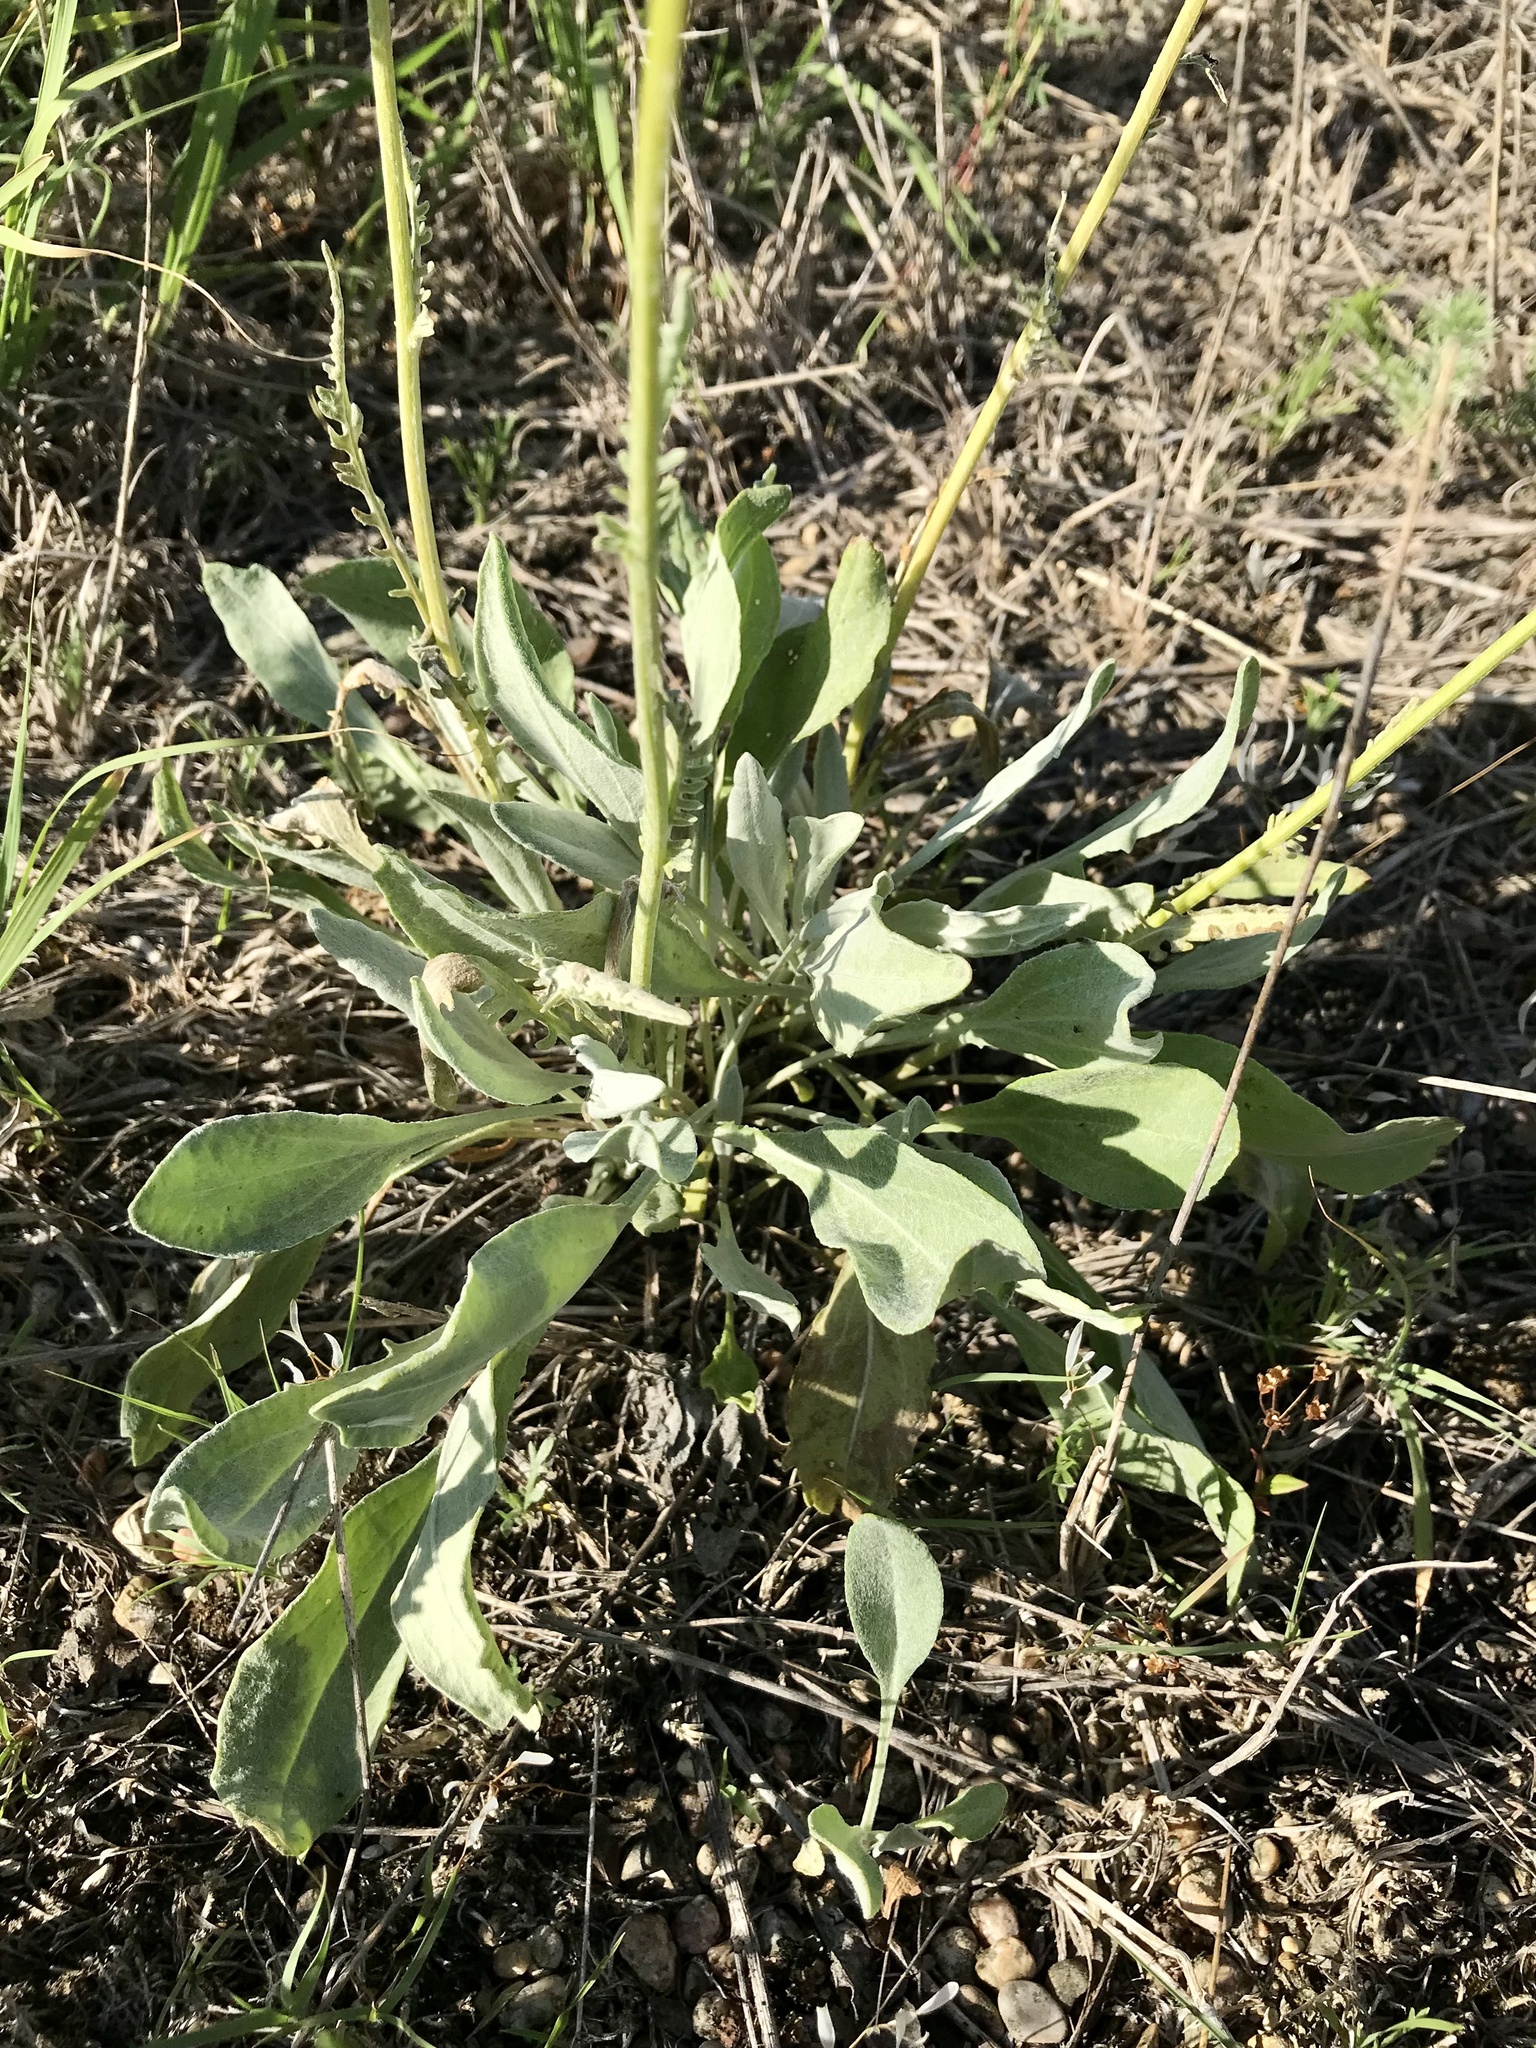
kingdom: Plantae
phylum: Tracheophyta
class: Magnoliopsida
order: Asterales
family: Asteraceae
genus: Packera
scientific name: Packera cana
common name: Woolly groundsel
